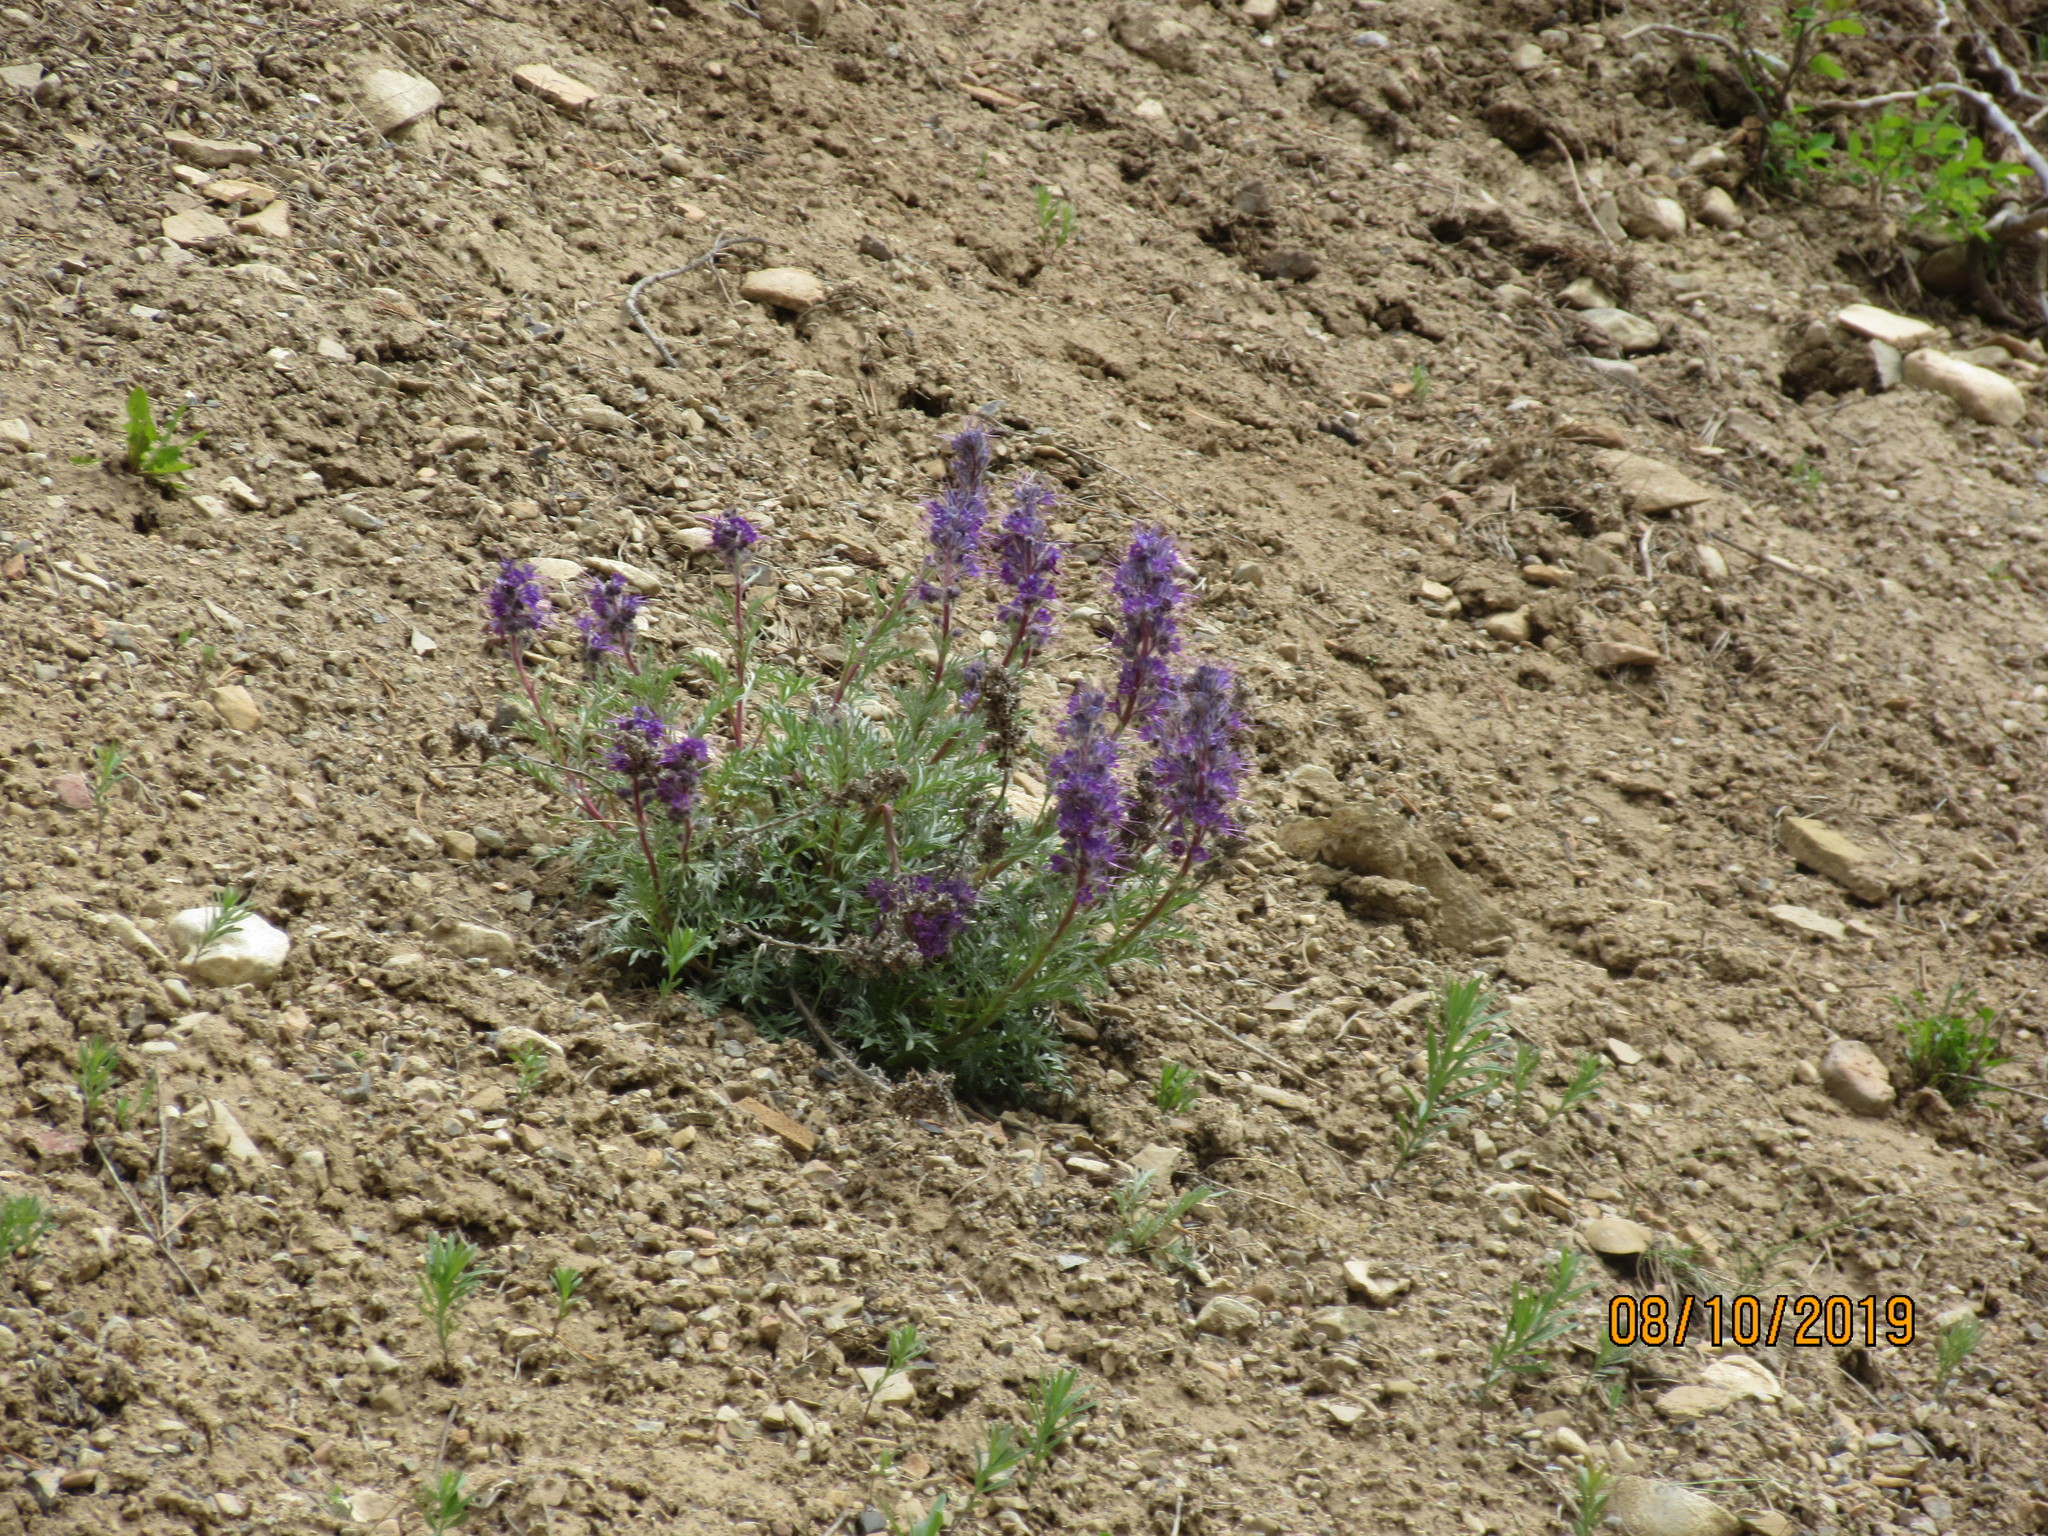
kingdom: Plantae
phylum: Tracheophyta
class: Magnoliopsida
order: Boraginales
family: Hydrophyllaceae
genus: Phacelia
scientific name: Phacelia sericea
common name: Silky phacelia
